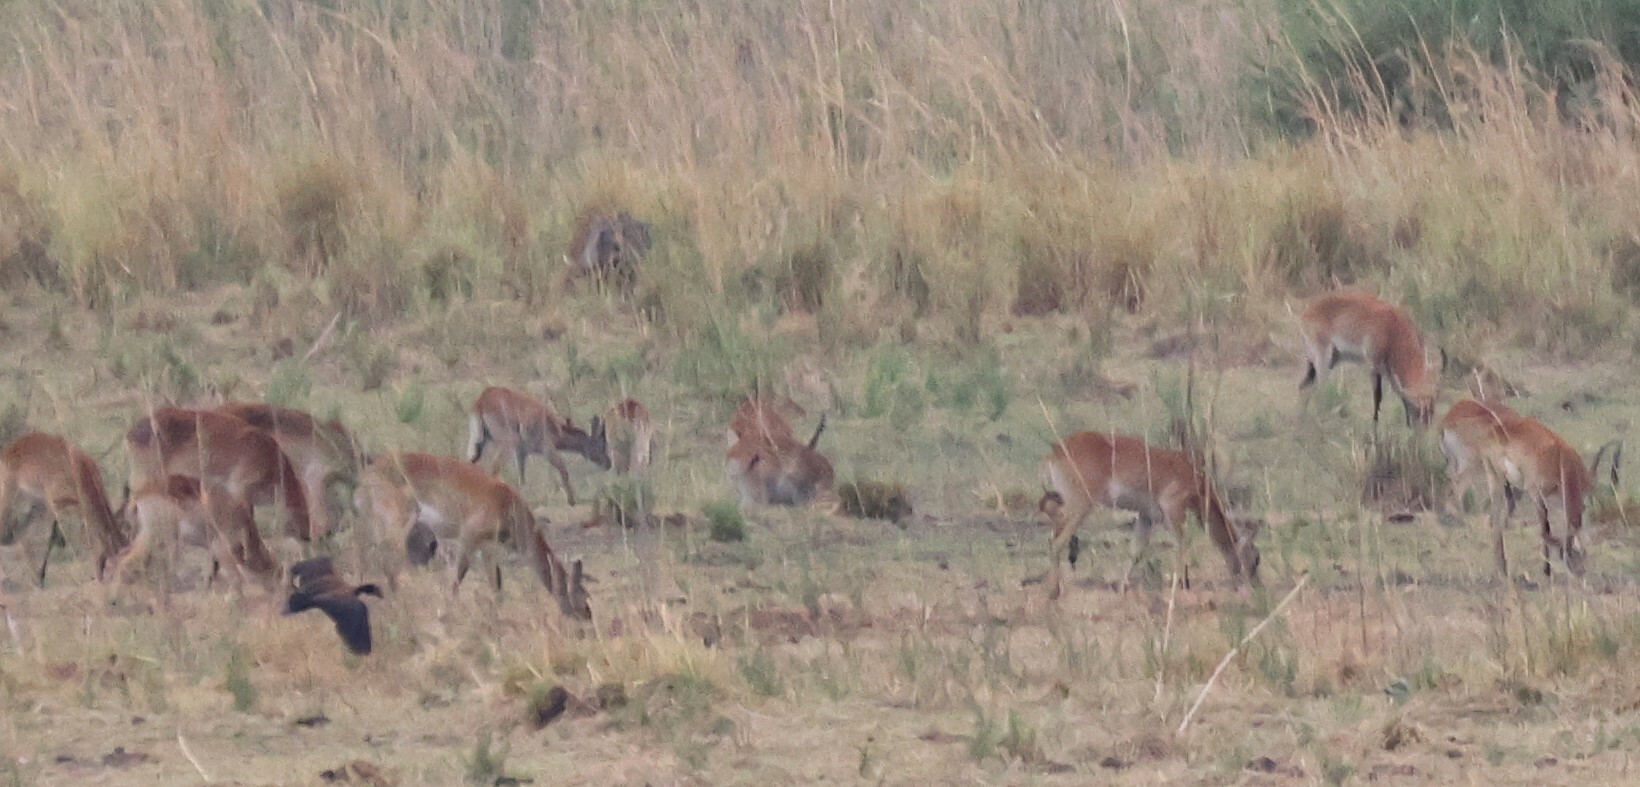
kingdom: Animalia
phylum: Chordata
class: Mammalia
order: Artiodactyla
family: Bovidae
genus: Kobus
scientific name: Kobus leche
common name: Lechwe
